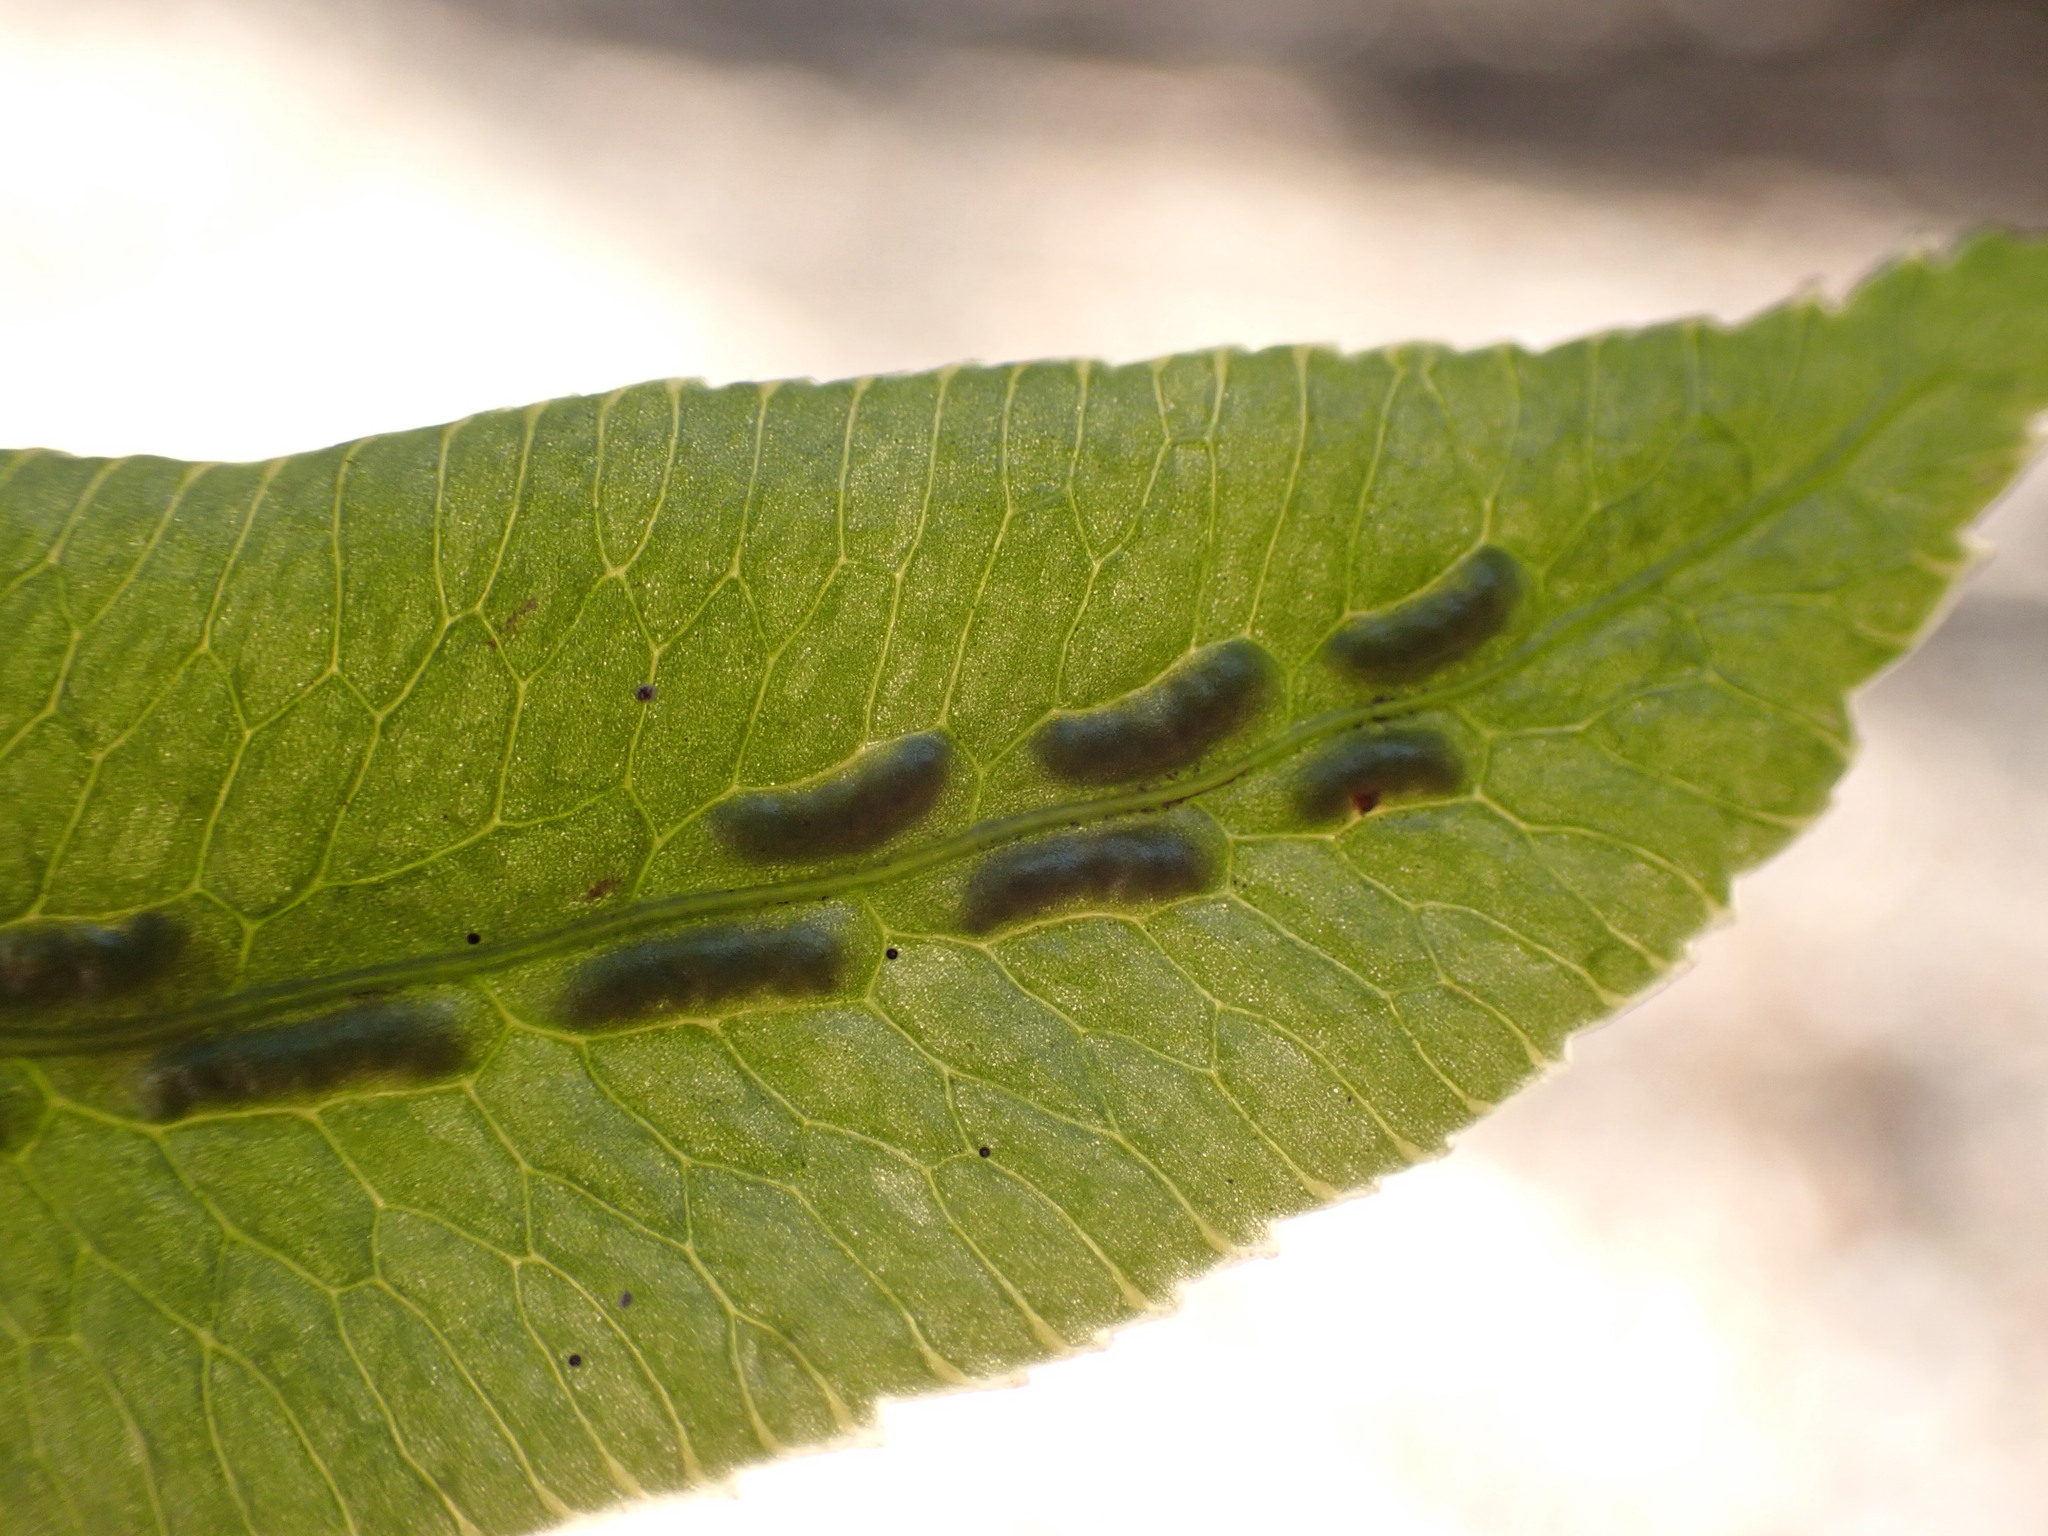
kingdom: Plantae
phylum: Tracheophyta
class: Polypodiopsida
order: Polypodiales
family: Blechnaceae
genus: Woodwardia
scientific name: Woodwardia orientalis
